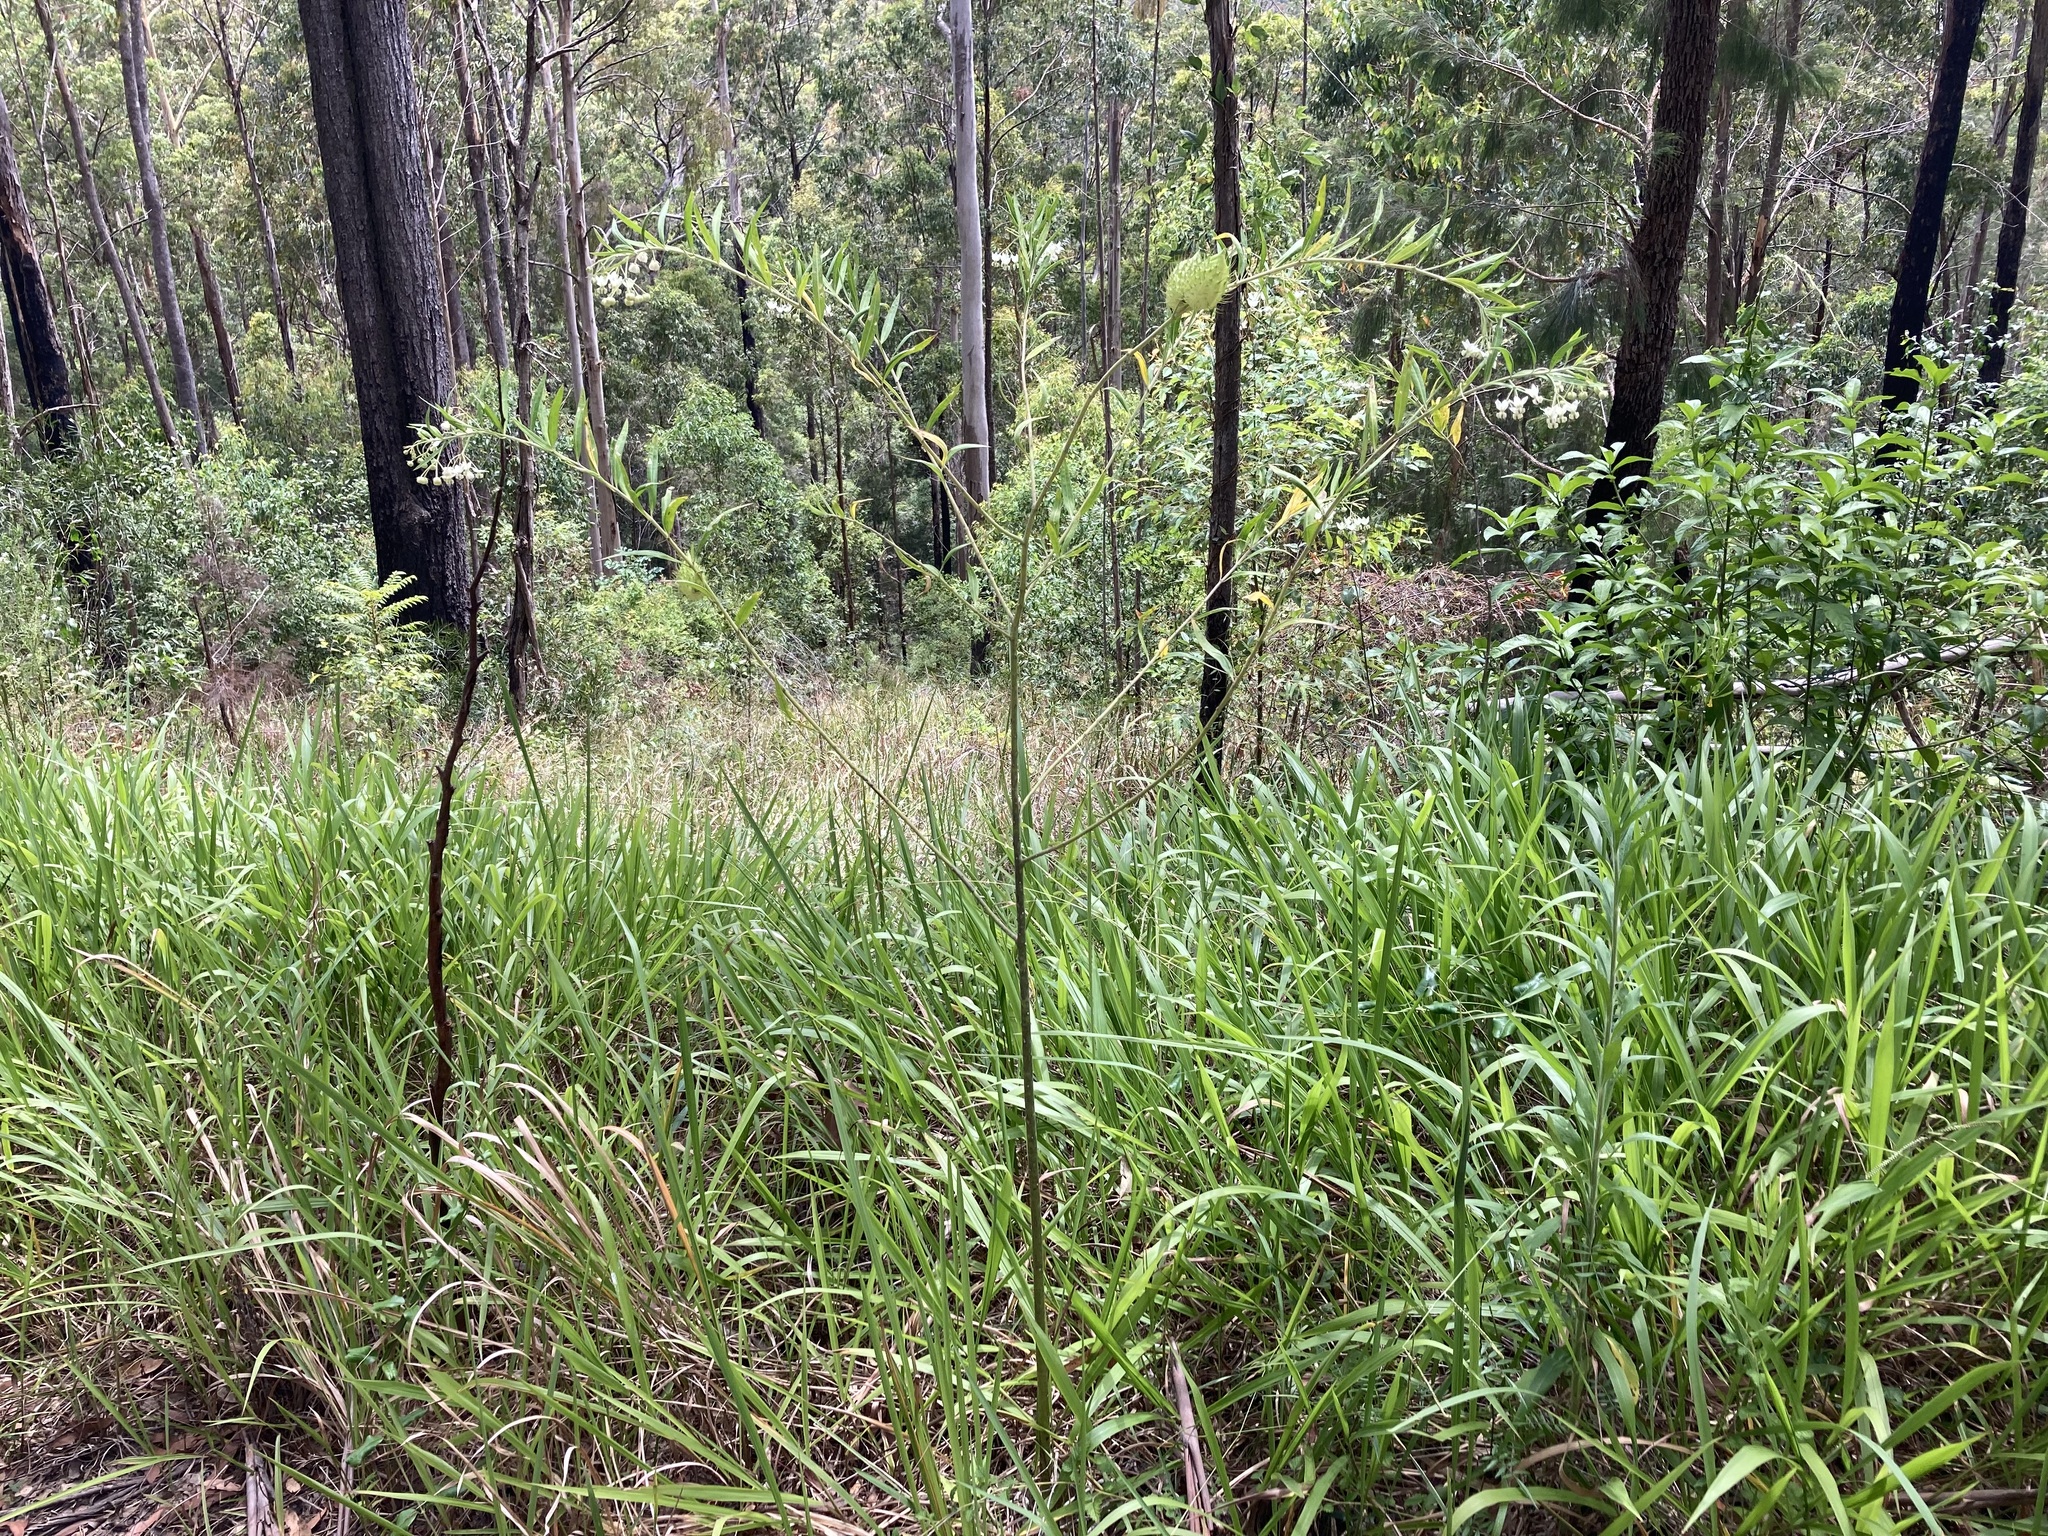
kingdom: Plantae
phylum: Tracheophyta
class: Magnoliopsida
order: Gentianales
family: Apocynaceae
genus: Gomphocarpus
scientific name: Gomphocarpus fruticosus
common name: Milkweed
